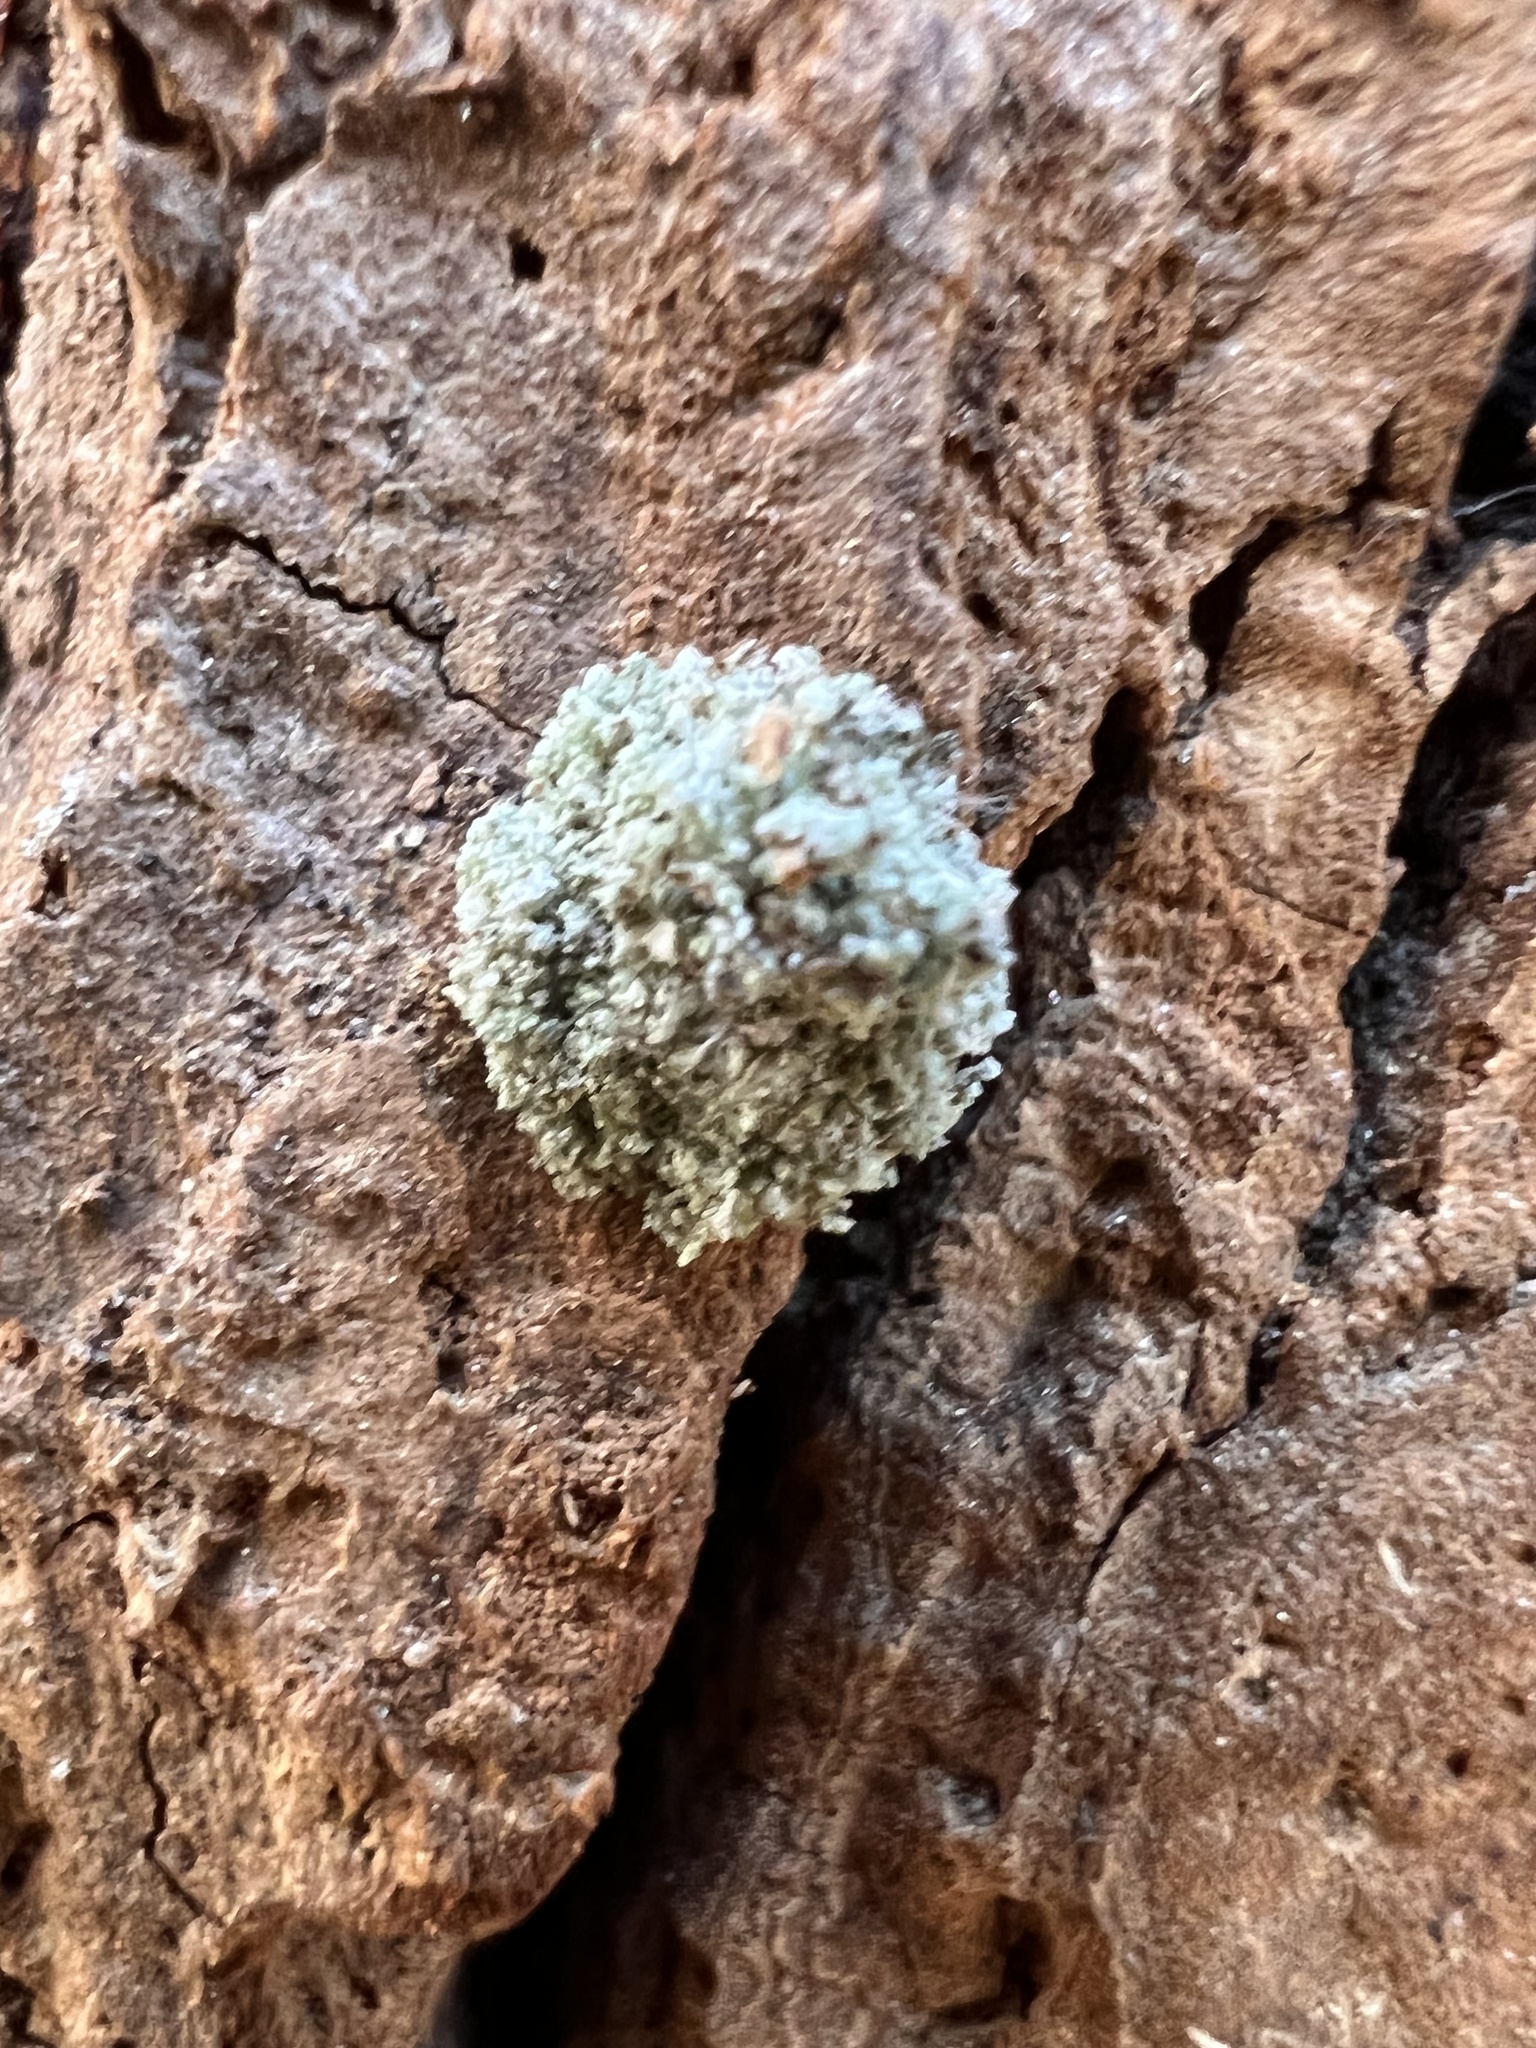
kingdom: Animalia
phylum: Arthropoda
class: Insecta
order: Neuroptera
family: Chrysopidae
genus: Leucochrysa
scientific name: Leucochrysa pavida
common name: Lichen-carrying green lacewing
